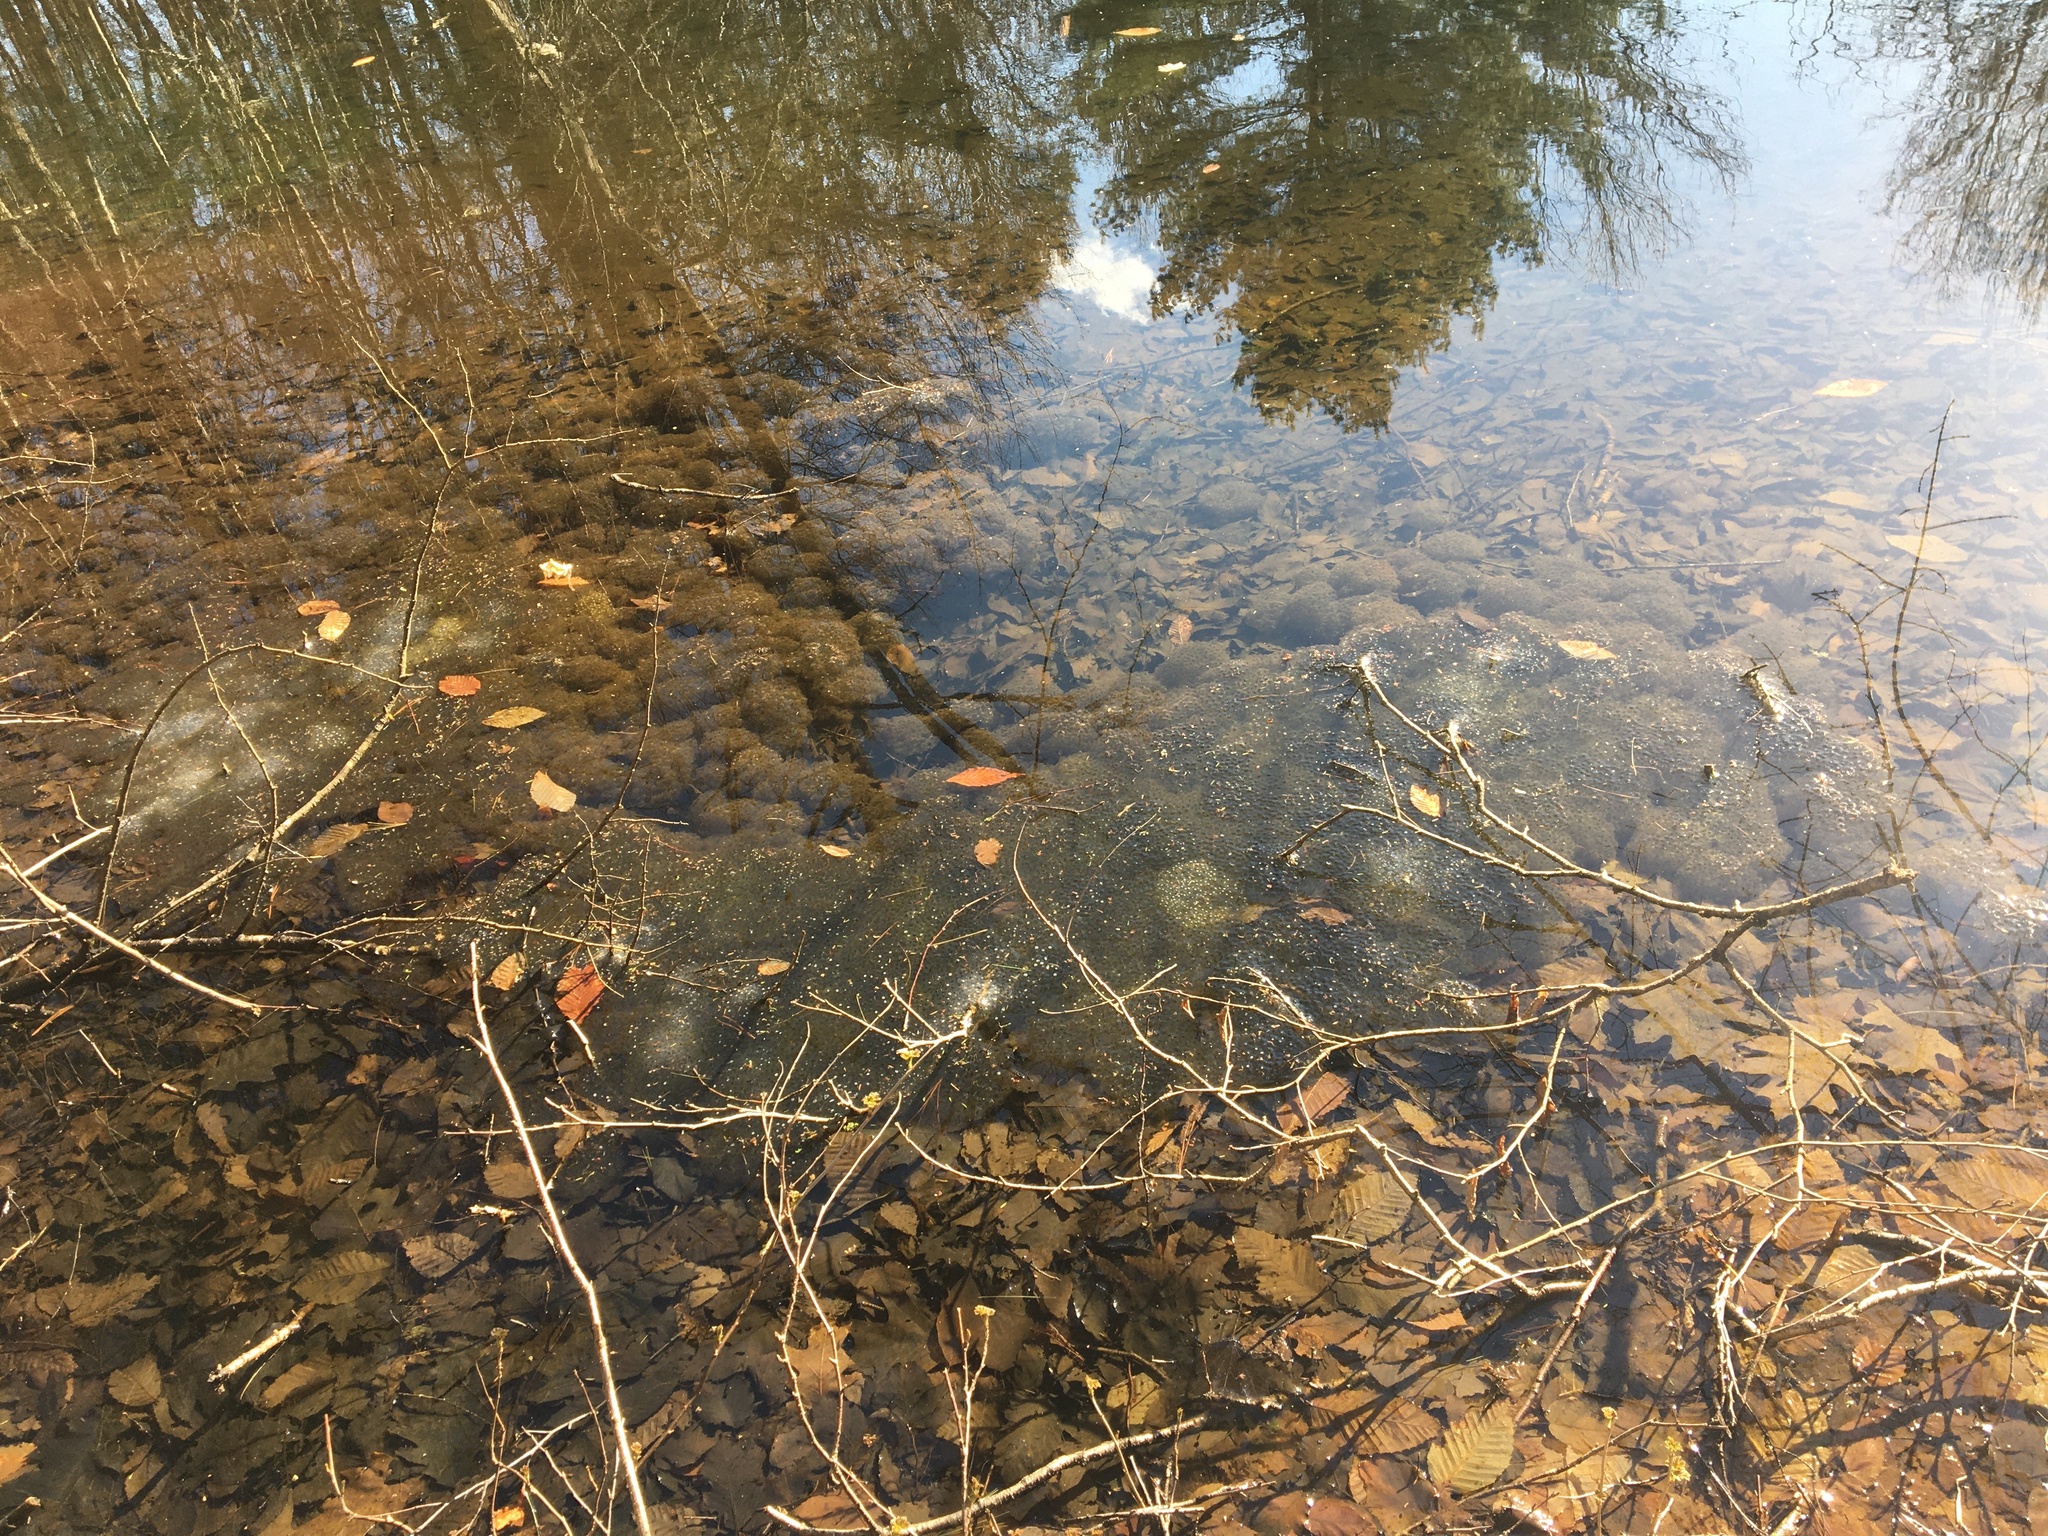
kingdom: Animalia
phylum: Chordata
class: Amphibia
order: Anura
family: Ranidae
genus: Lithobates
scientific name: Lithobates sylvaticus
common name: Wood frog
